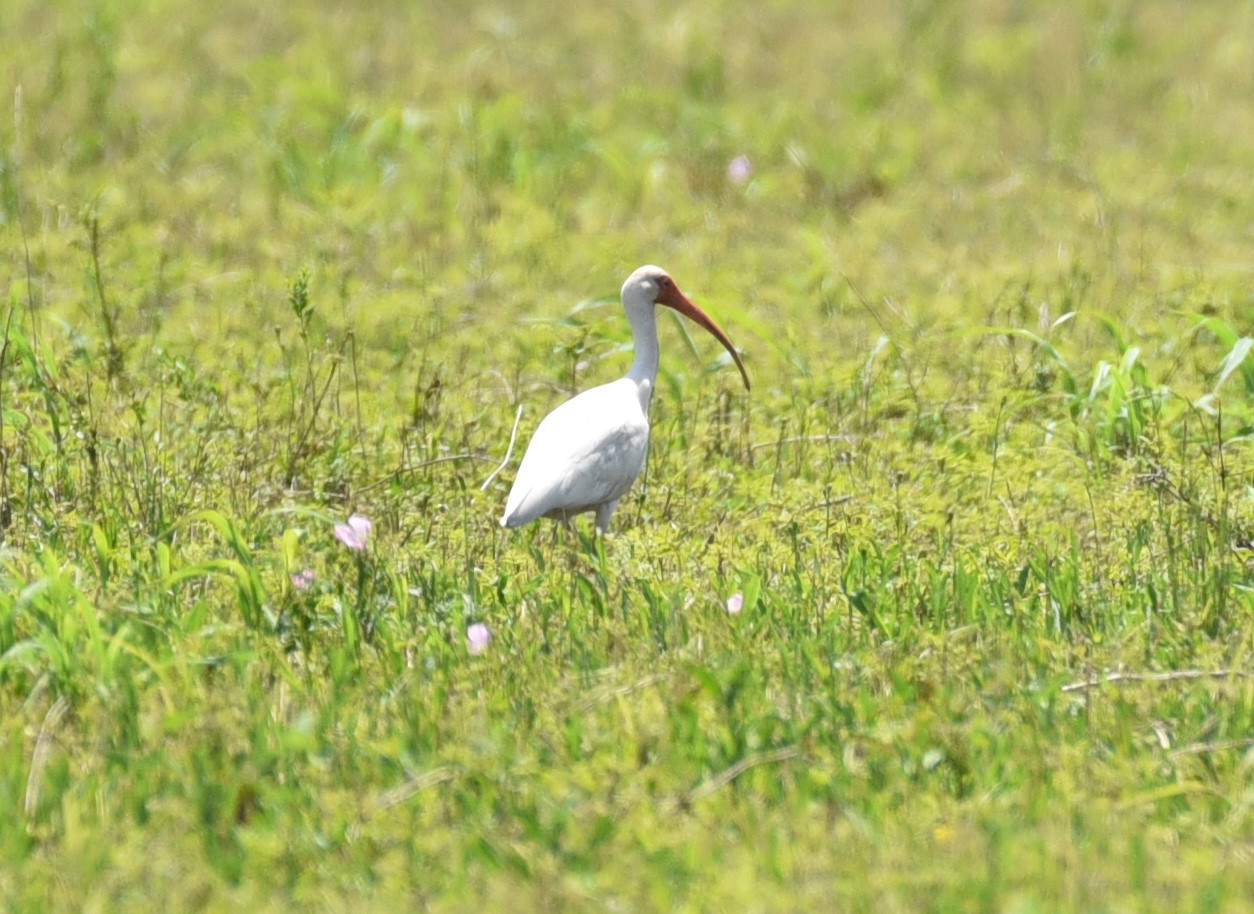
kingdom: Animalia
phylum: Chordata
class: Aves
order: Pelecaniformes
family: Threskiornithidae
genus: Eudocimus
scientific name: Eudocimus albus
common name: White ibis
